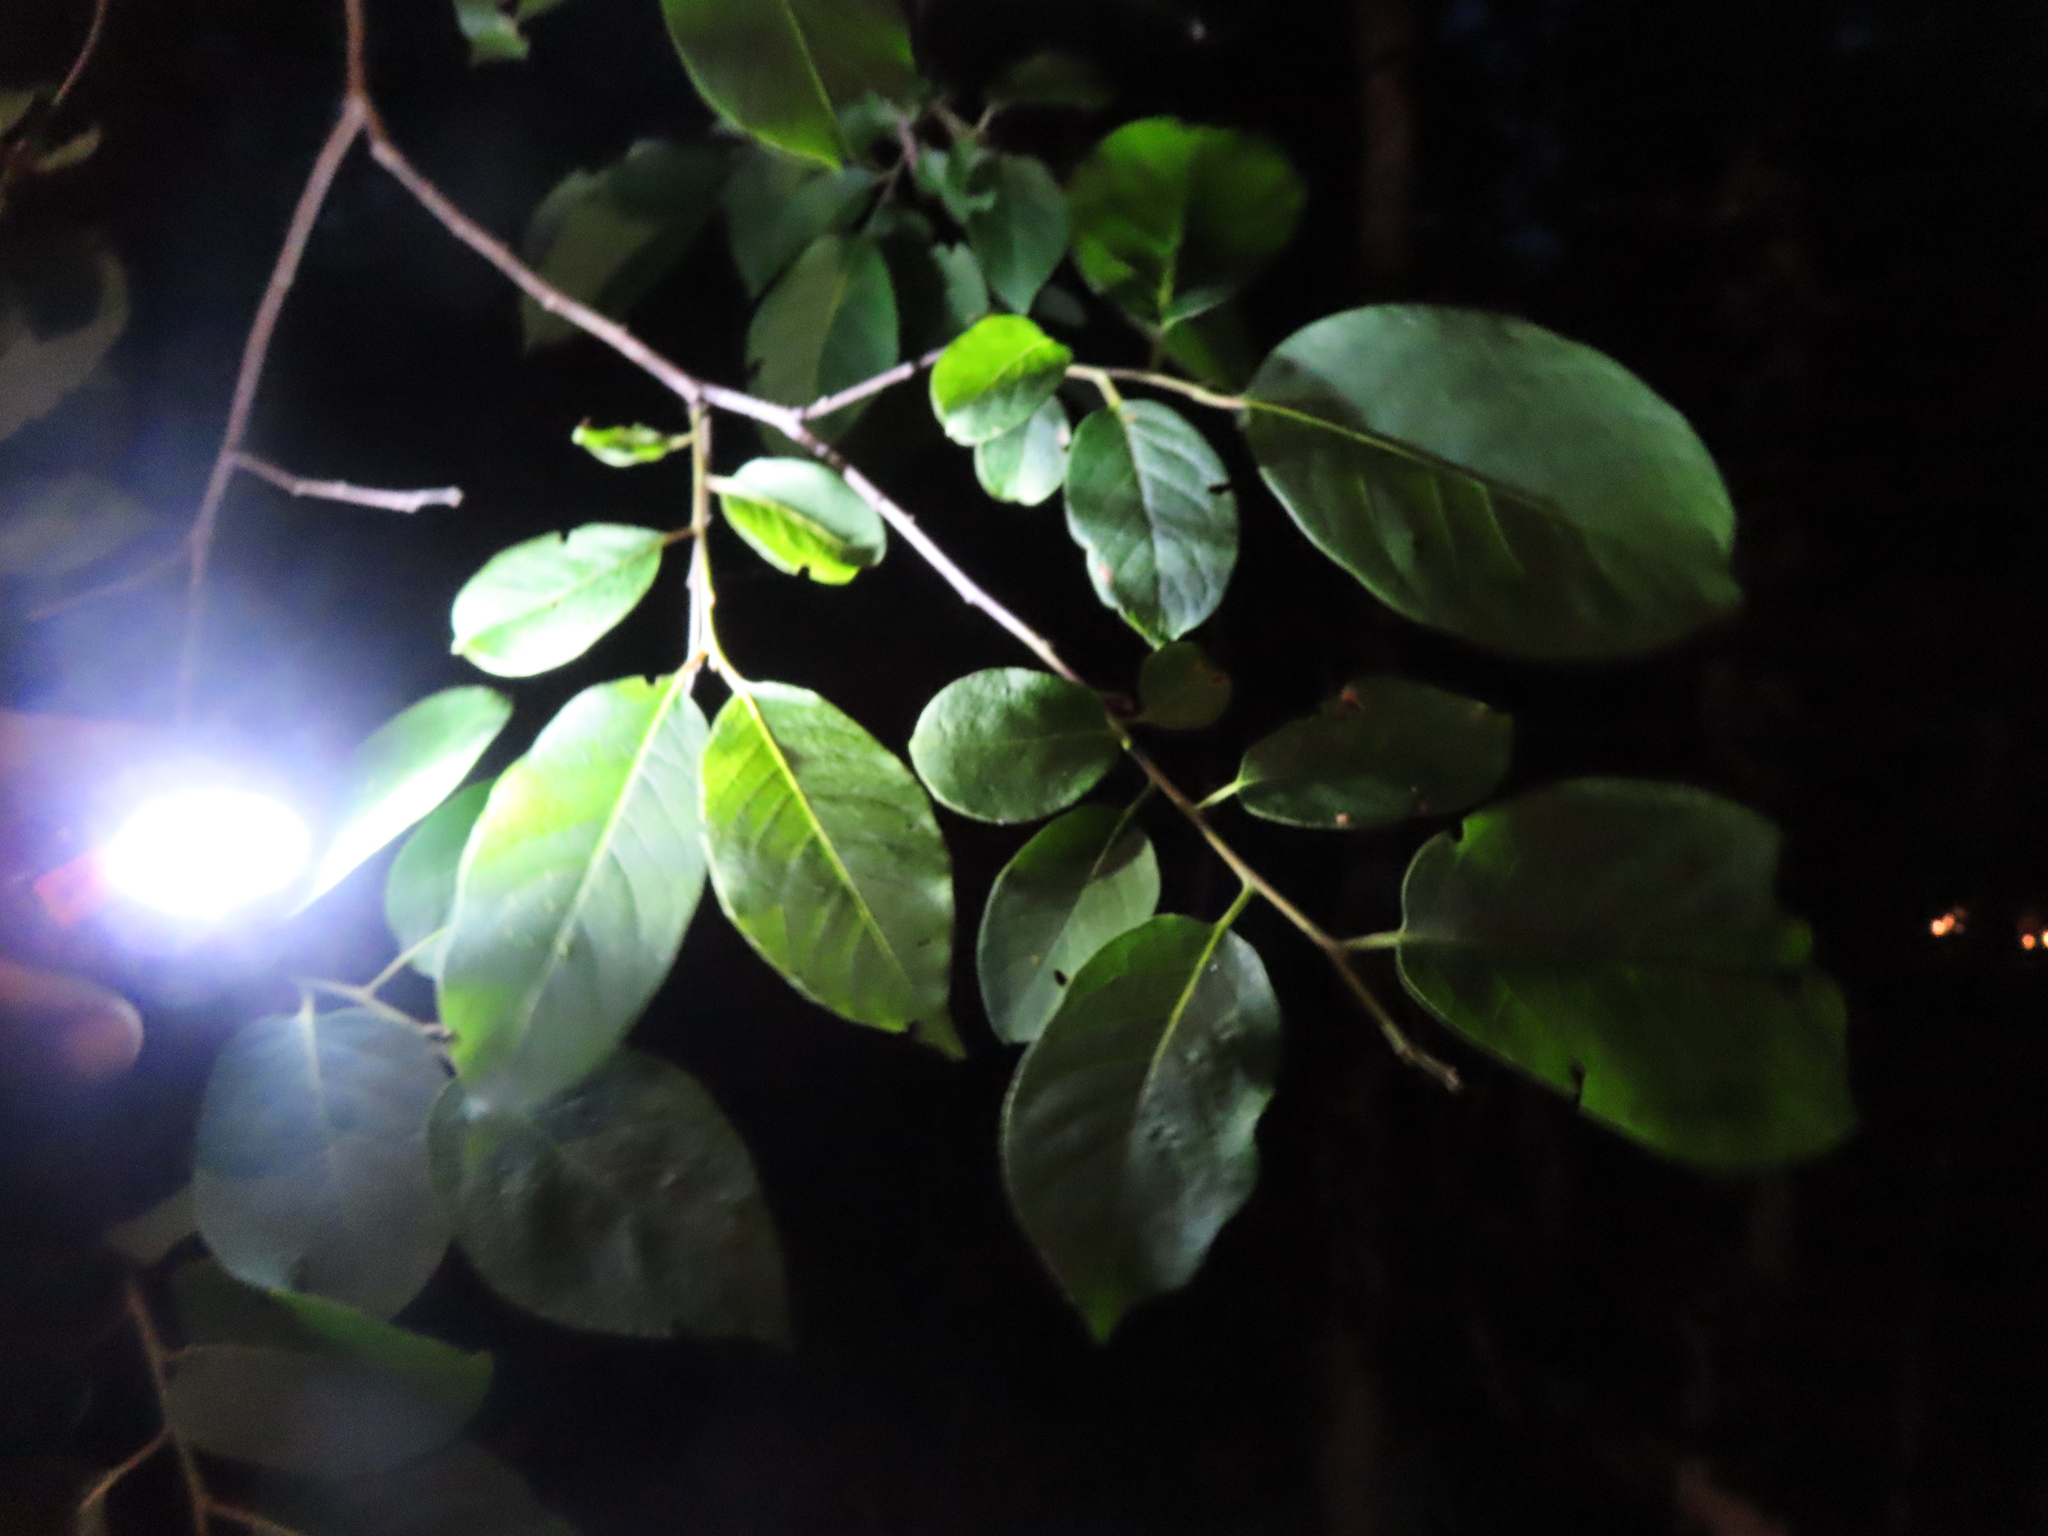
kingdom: Plantae
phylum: Tracheophyta
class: Magnoliopsida
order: Ericales
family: Ebenaceae
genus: Diospyros
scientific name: Diospyros virginiana
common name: Persimmon
